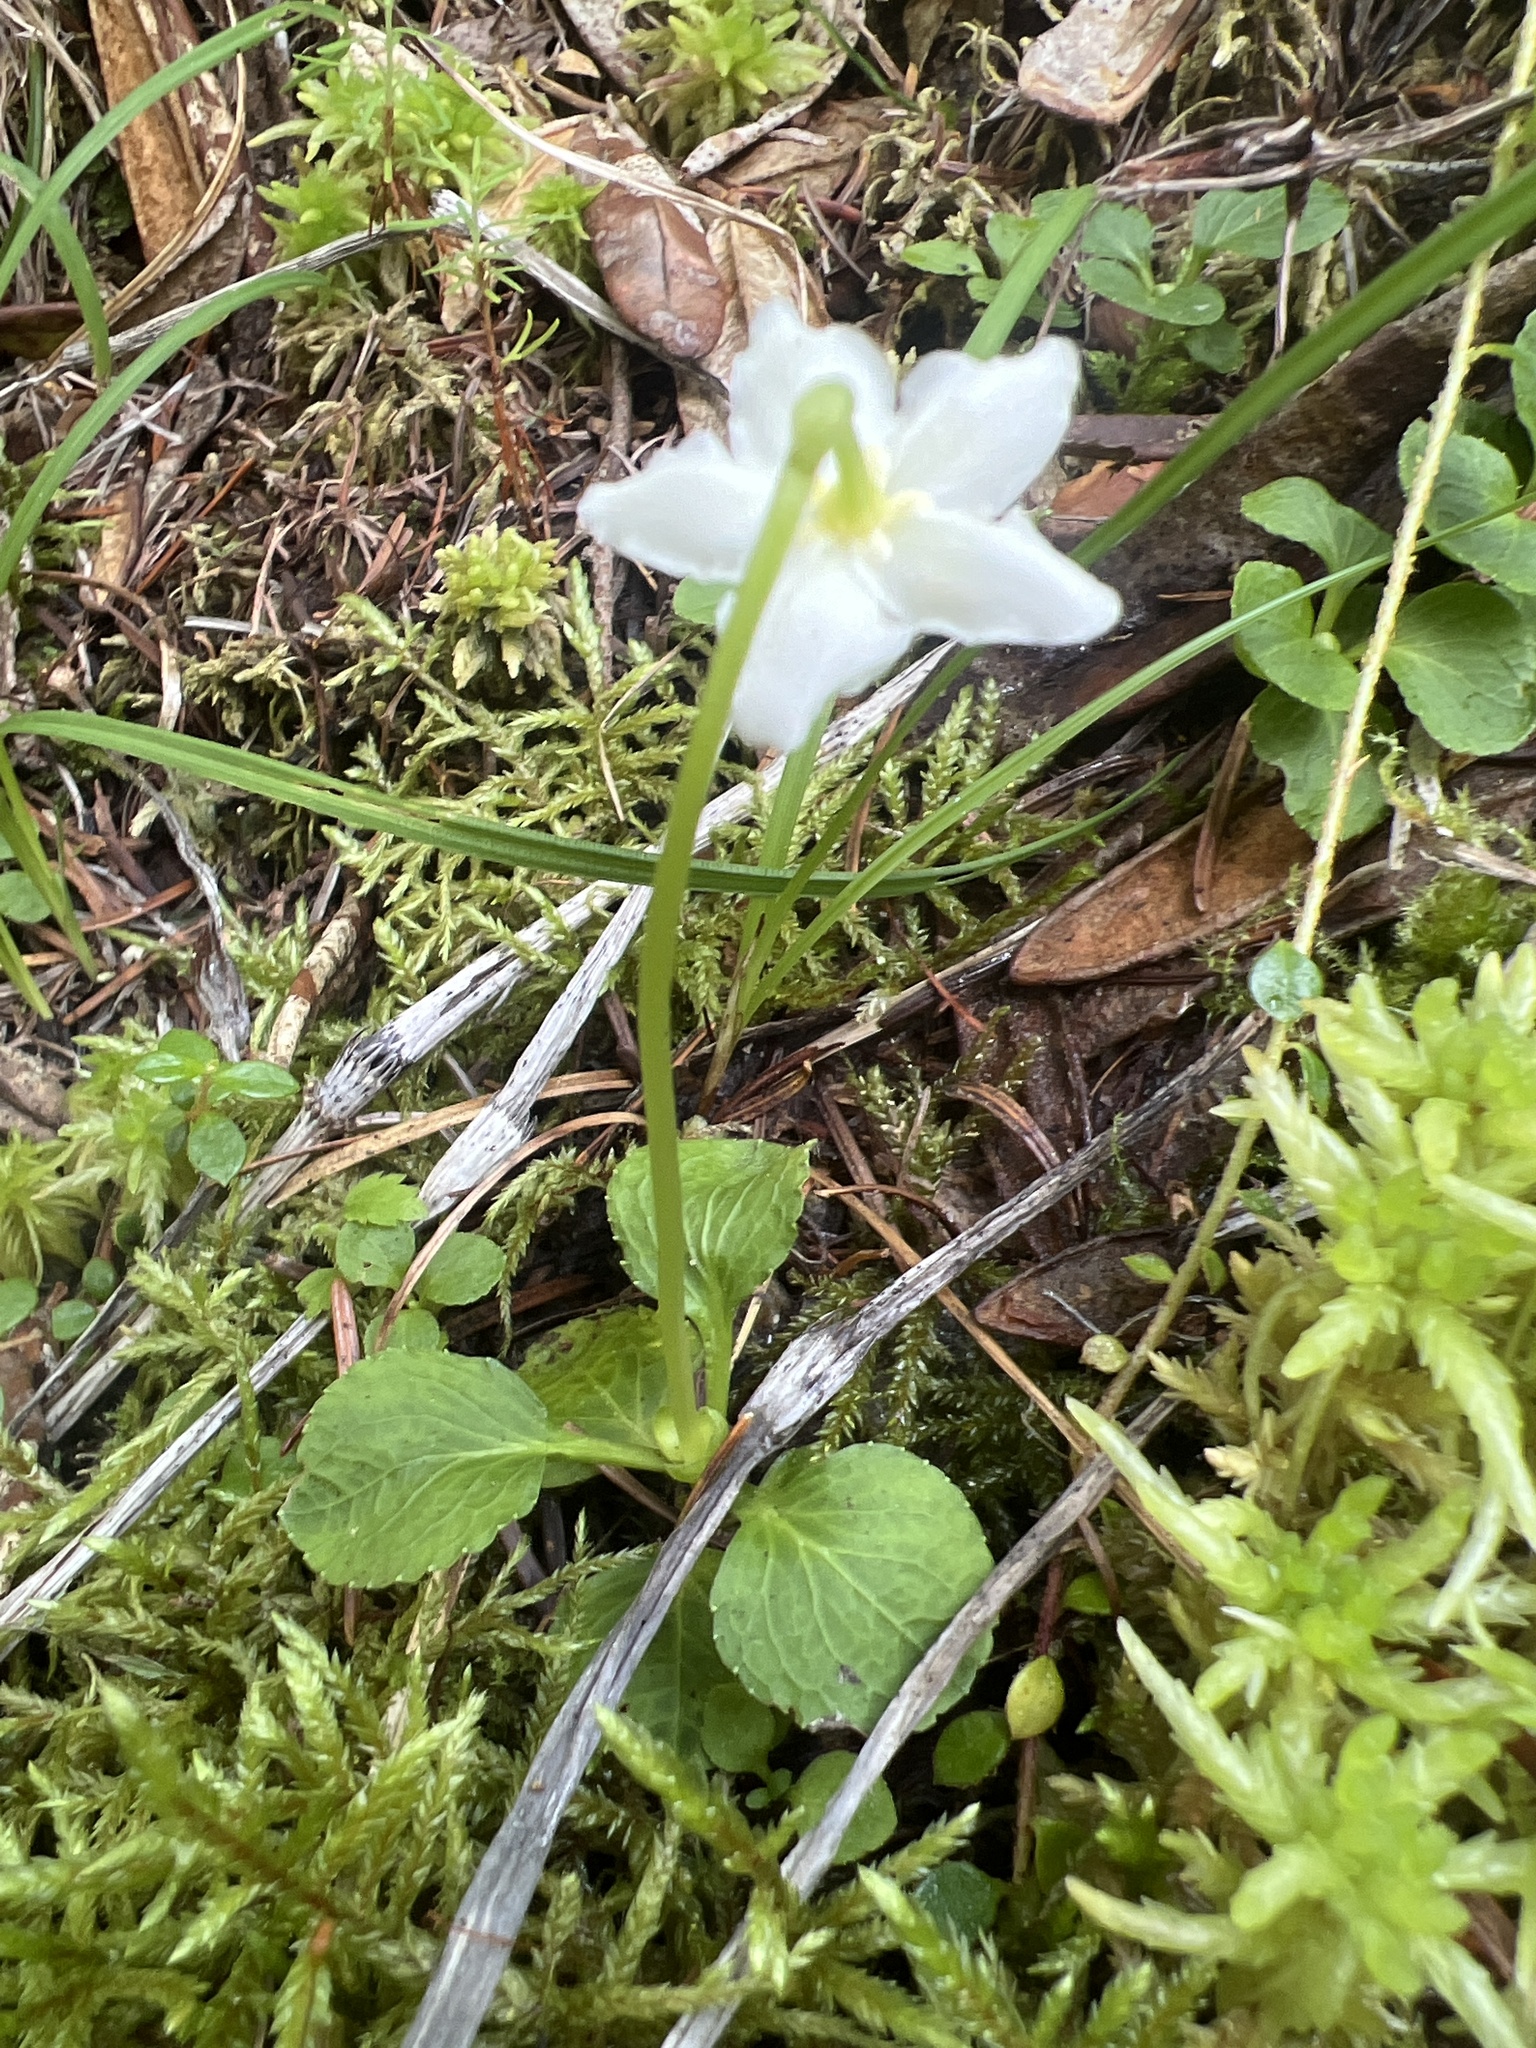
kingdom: Plantae
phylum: Tracheophyta
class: Magnoliopsida
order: Ericales
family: Ericaceae
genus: Moneses
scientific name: Moneses uniflora
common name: One-flowered wintergreen
